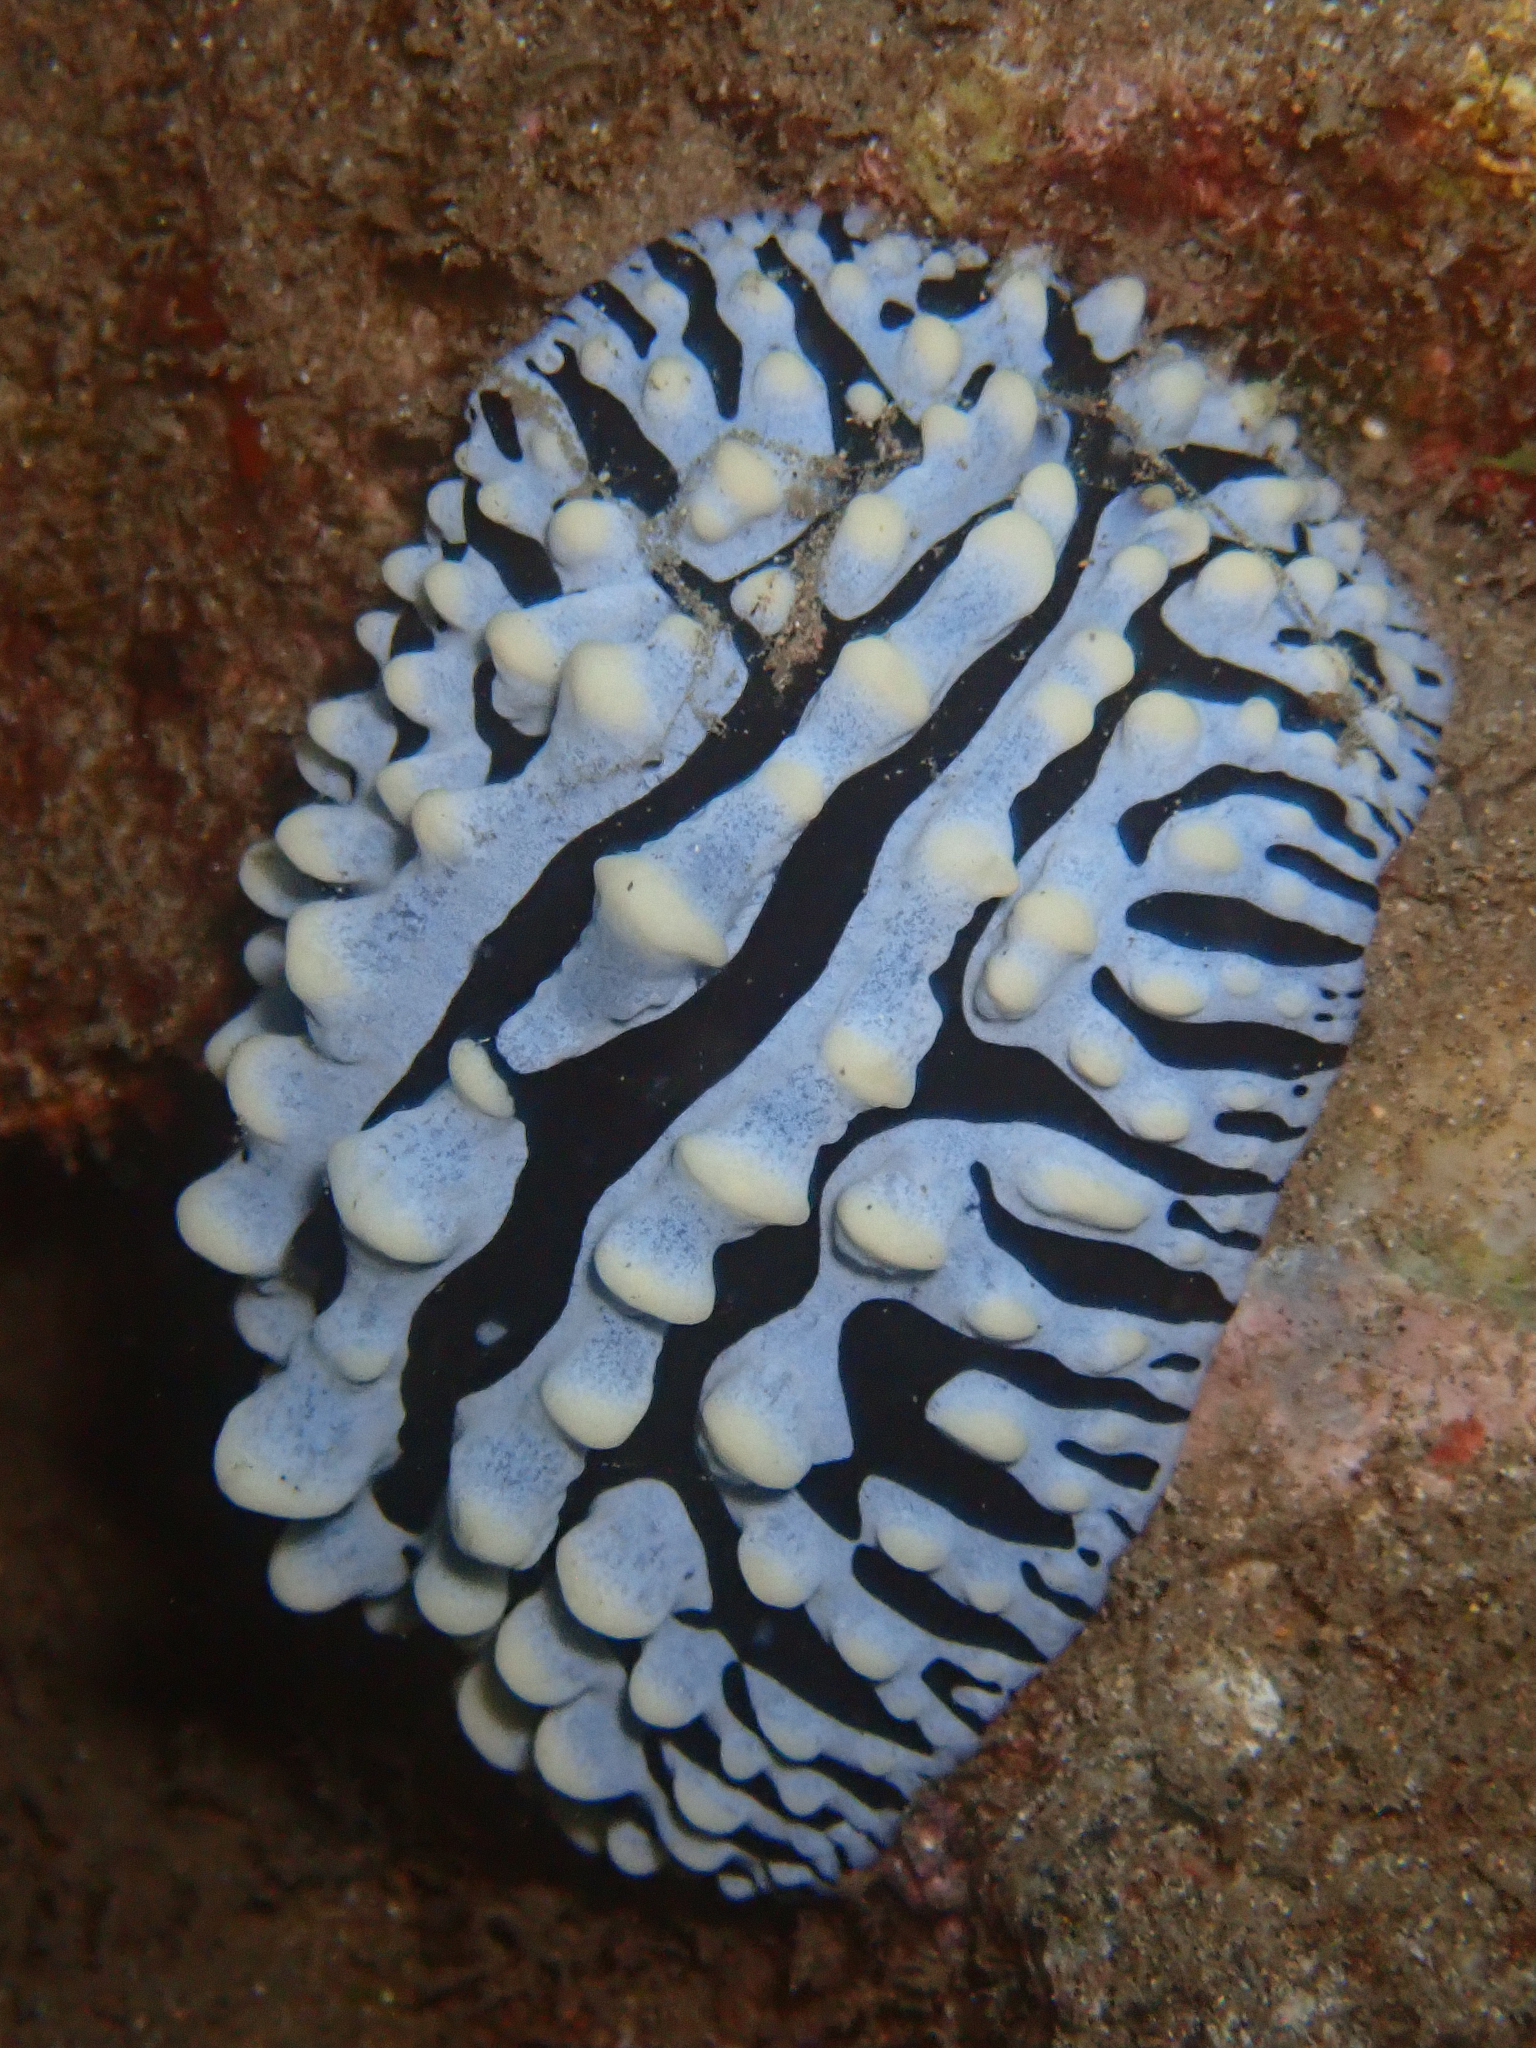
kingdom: Animalia
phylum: Mollusca
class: Gastropoda
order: Nudibranchia
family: Phyllidiidae
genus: Phyllidia
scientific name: Phyllidia varicosa
